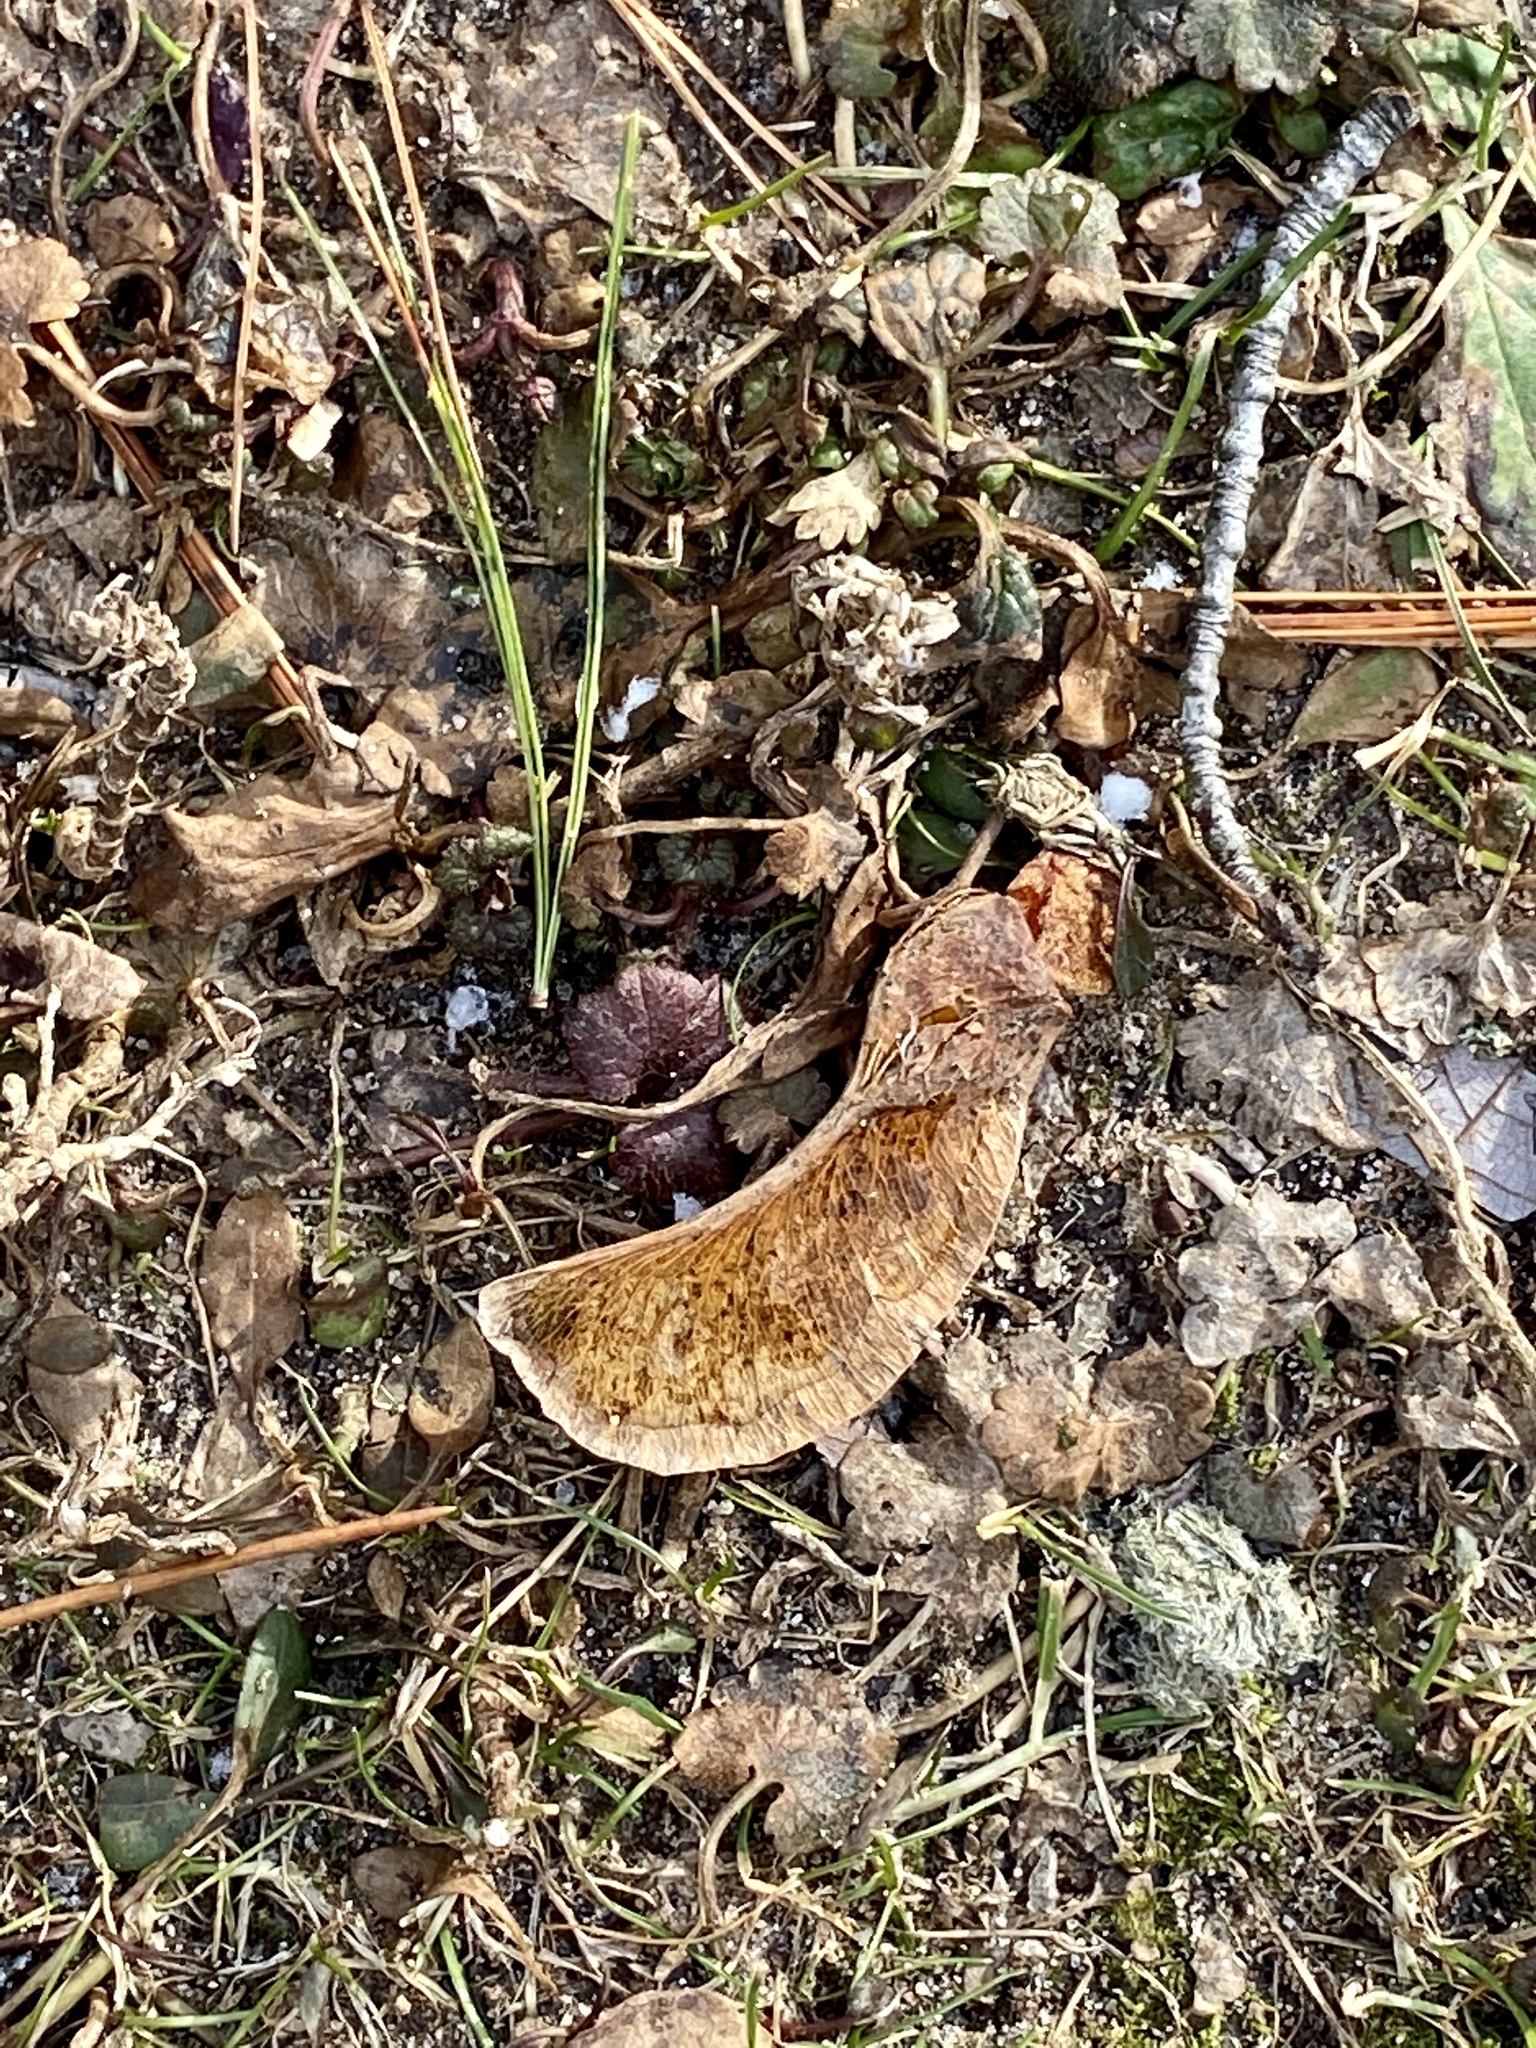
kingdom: Plantae
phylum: Tracheophyta
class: Magnoliopsida
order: Sapindales
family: Sapindaceae
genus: Acer
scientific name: Acer platanoides
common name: Norway maple
